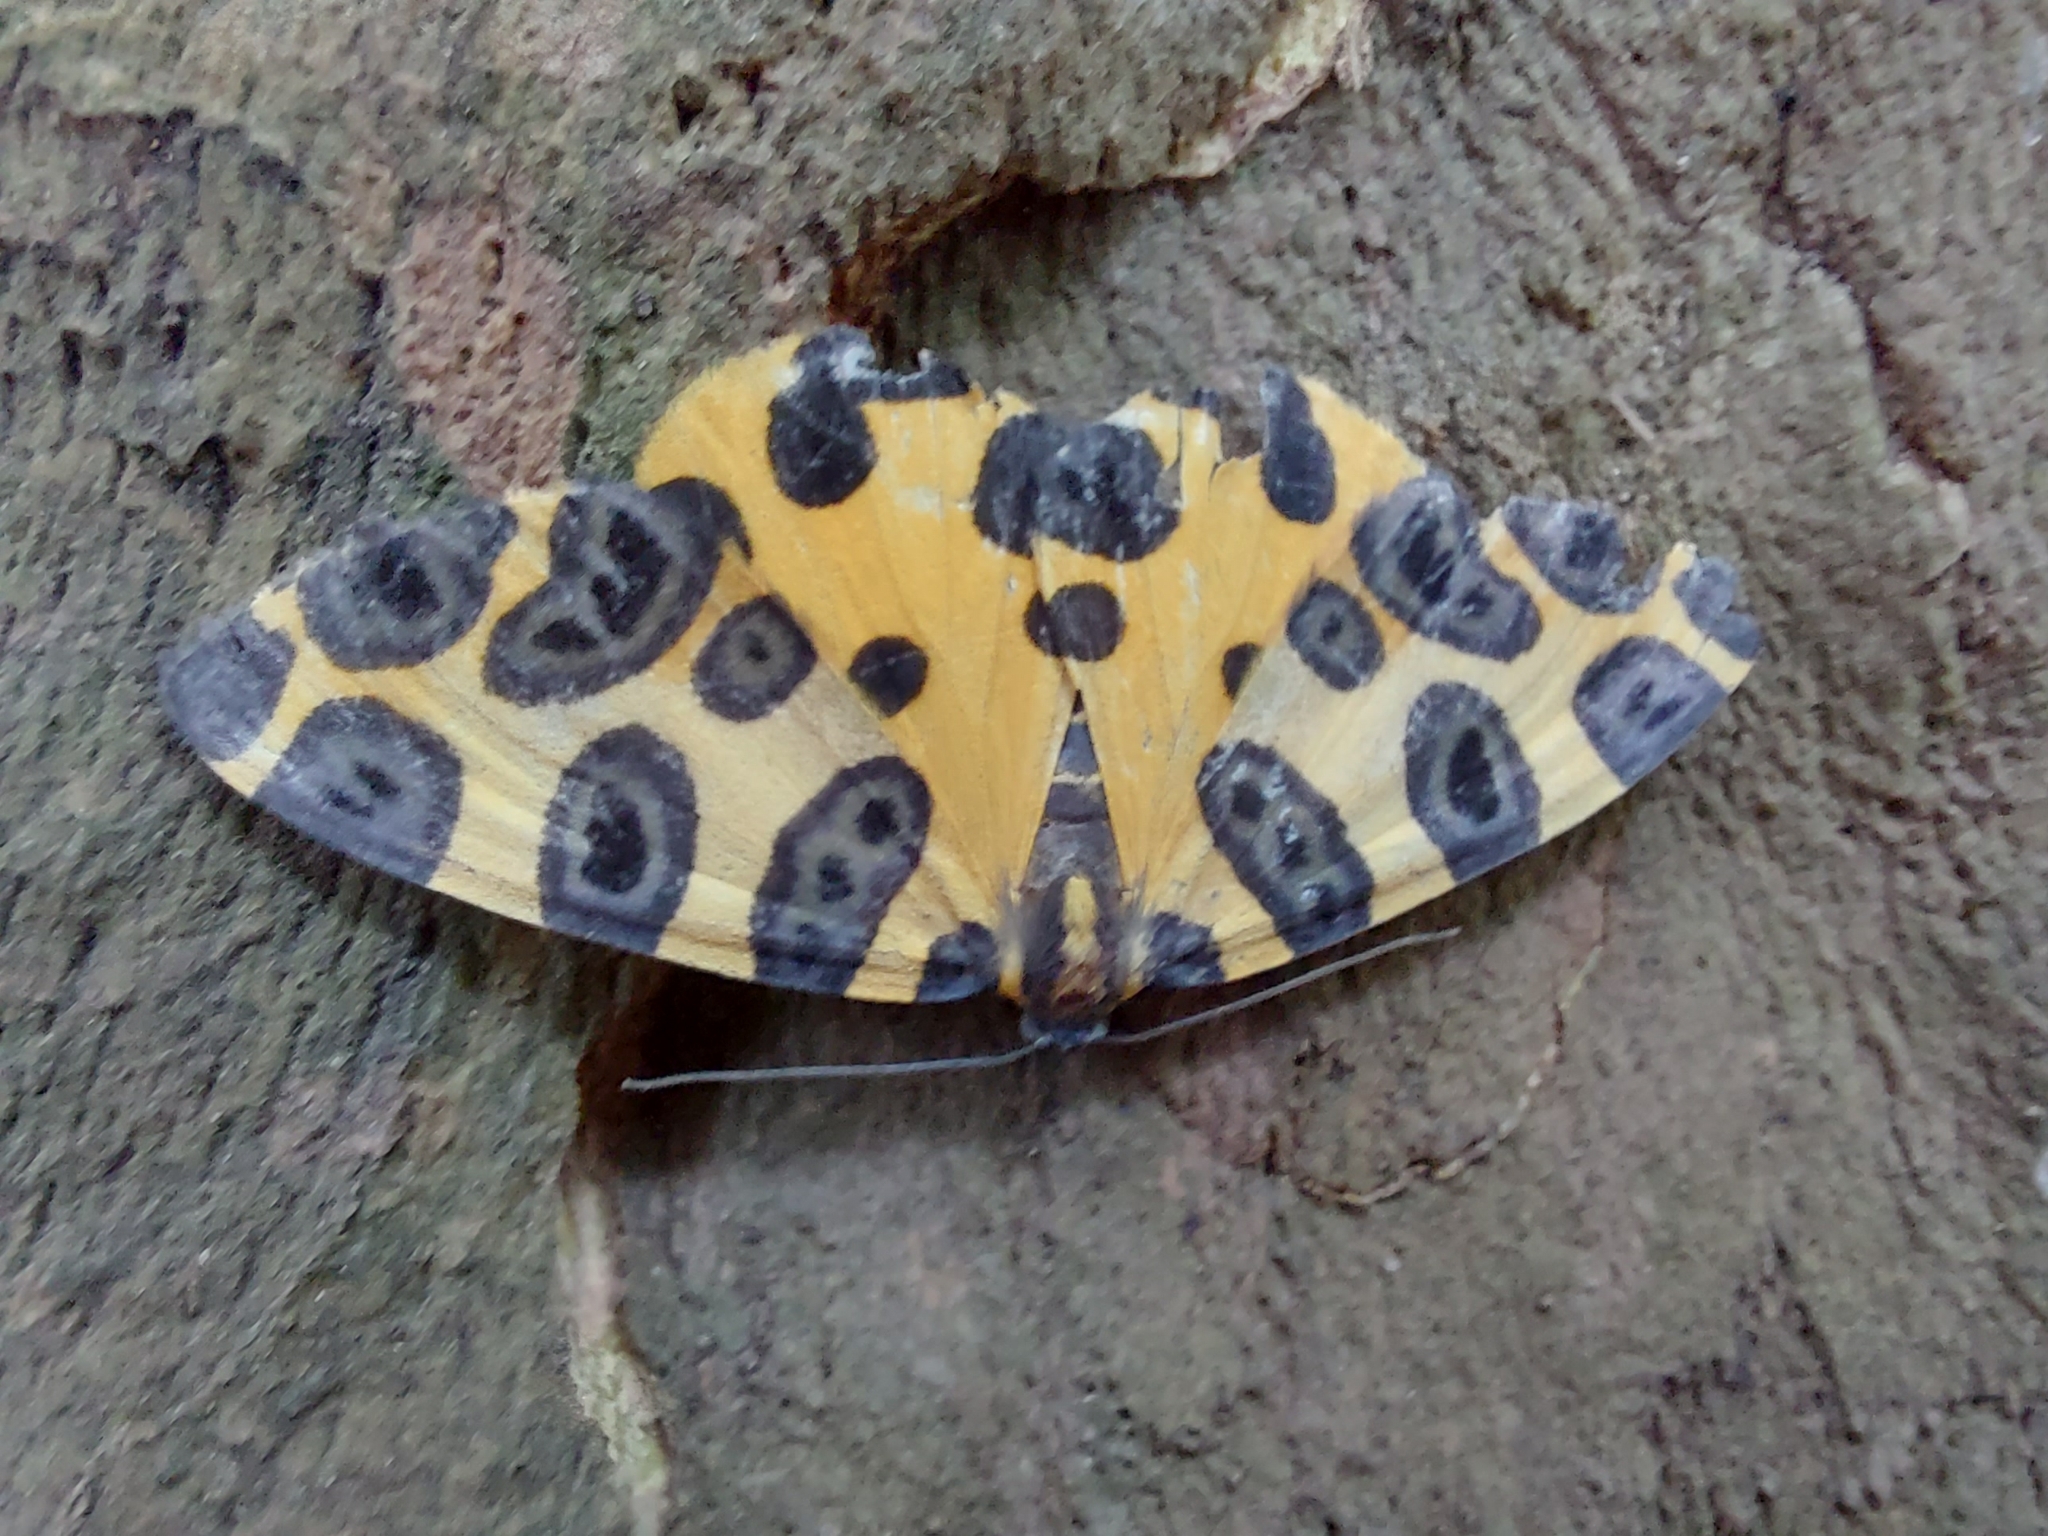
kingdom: Animalia
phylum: Arthropoda
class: Insecta
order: Lepidoptera
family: Geometridae
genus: Pantherodes
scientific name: Pantherodes unciaria
